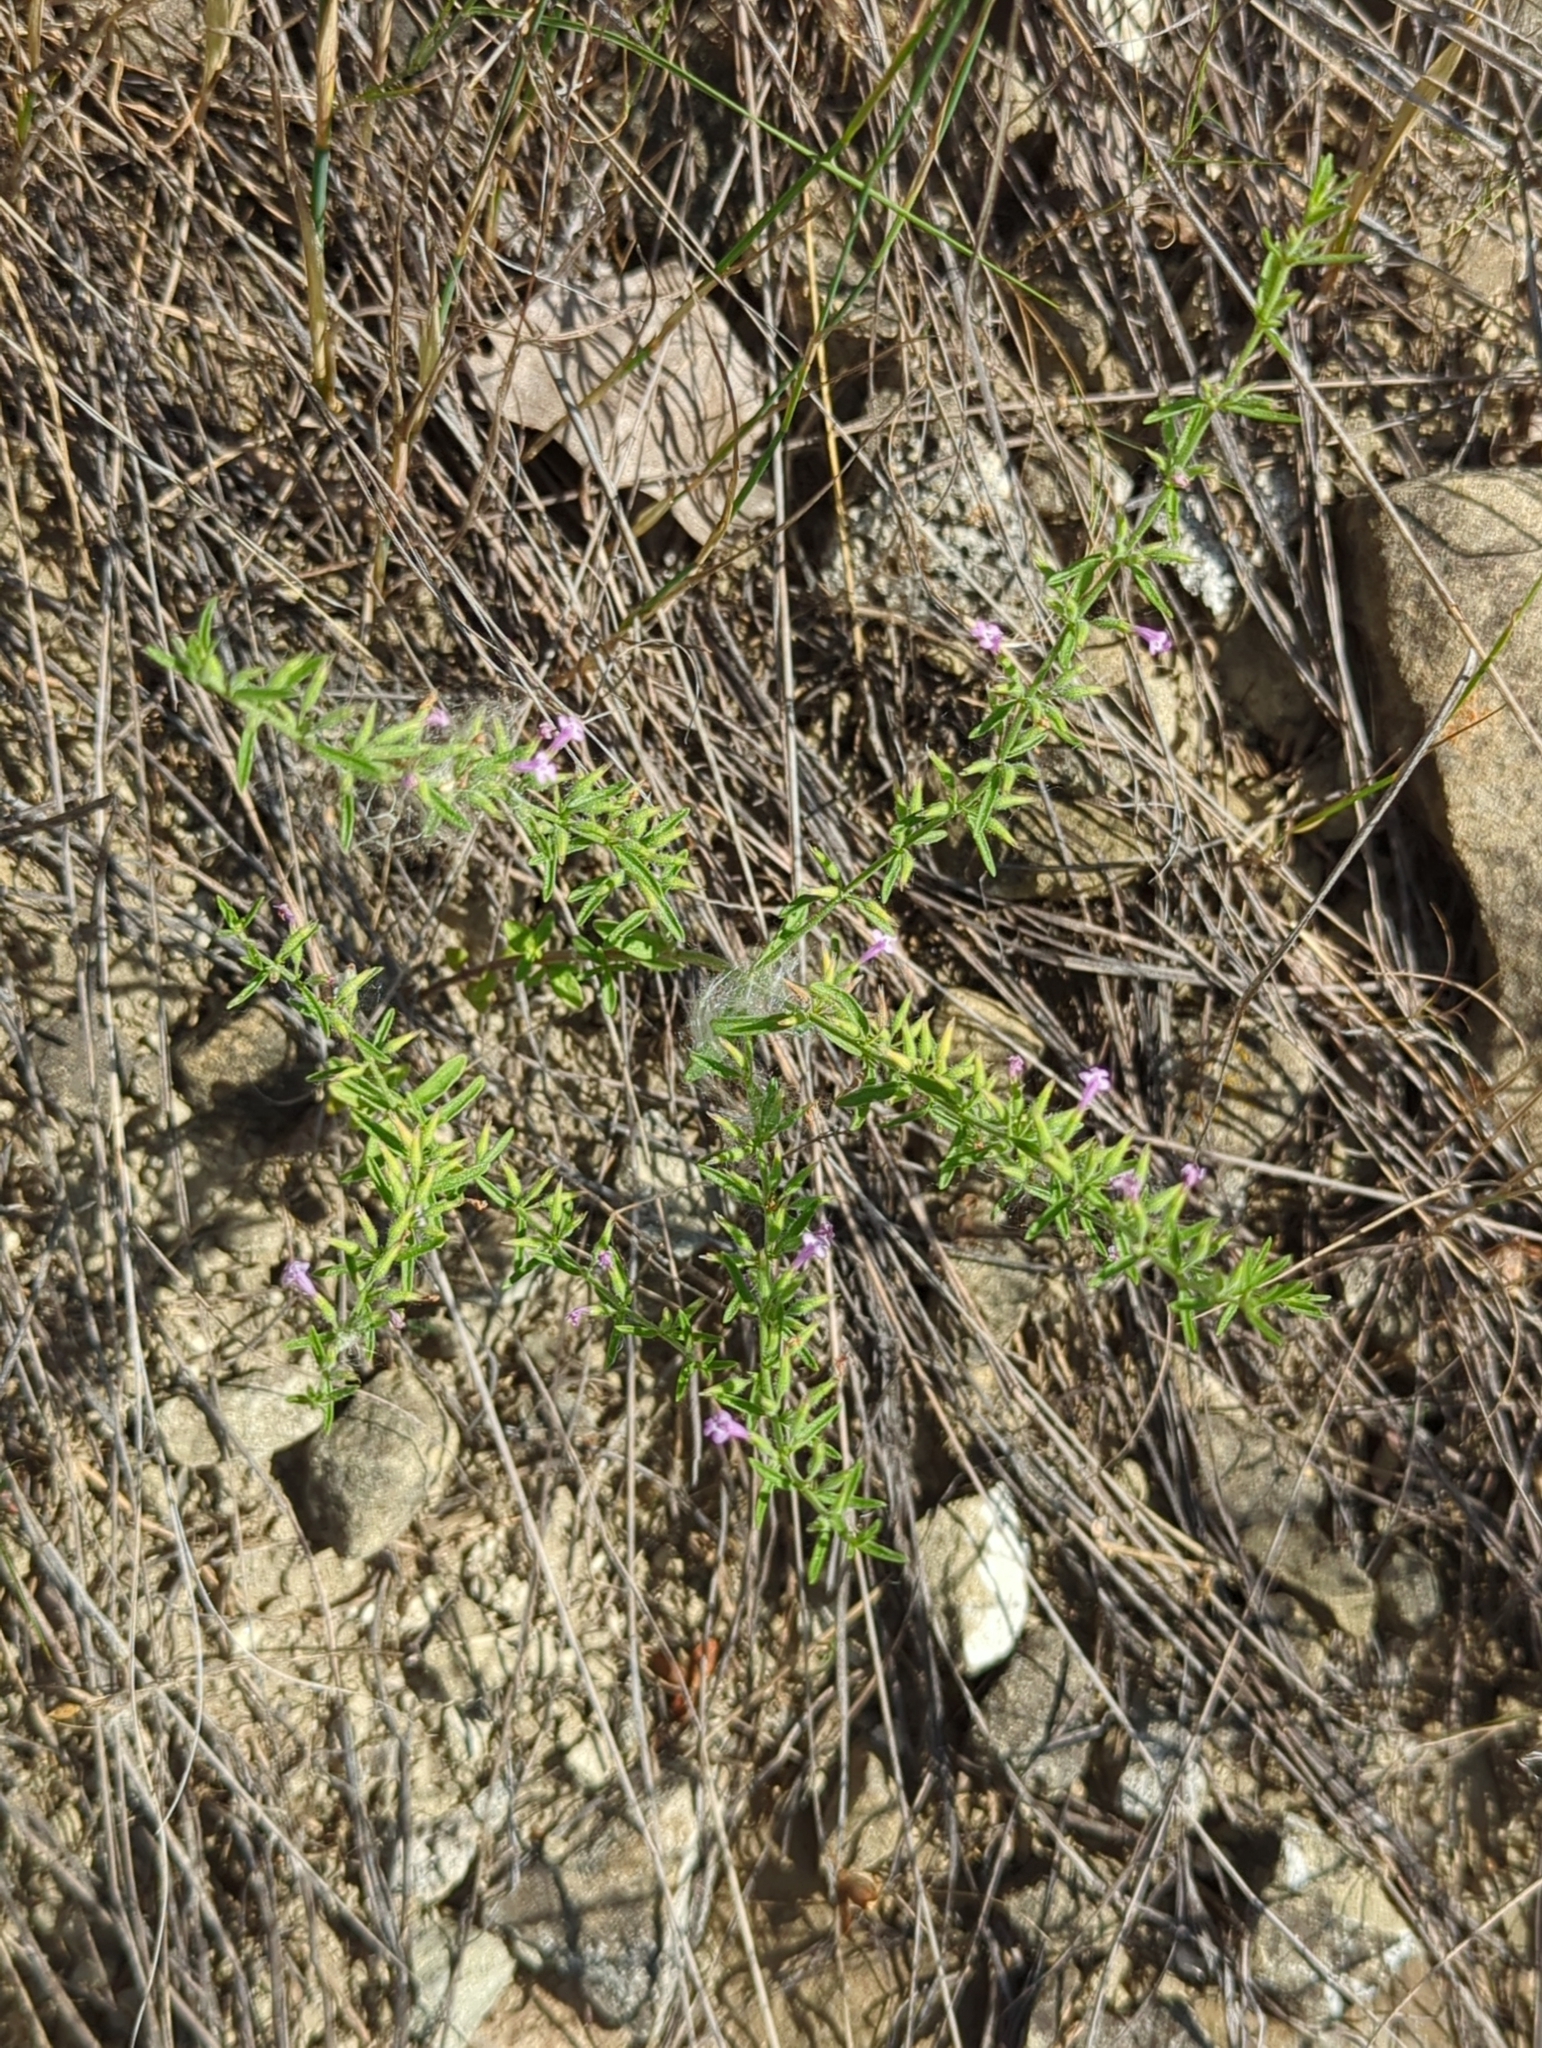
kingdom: Plantae
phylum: Tracheophyta
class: Magnoliopsida
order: Lamiales
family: Lamiaceae
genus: Hedeoma
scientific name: Hedeoma drummondii
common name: New mexico pennyroyal
